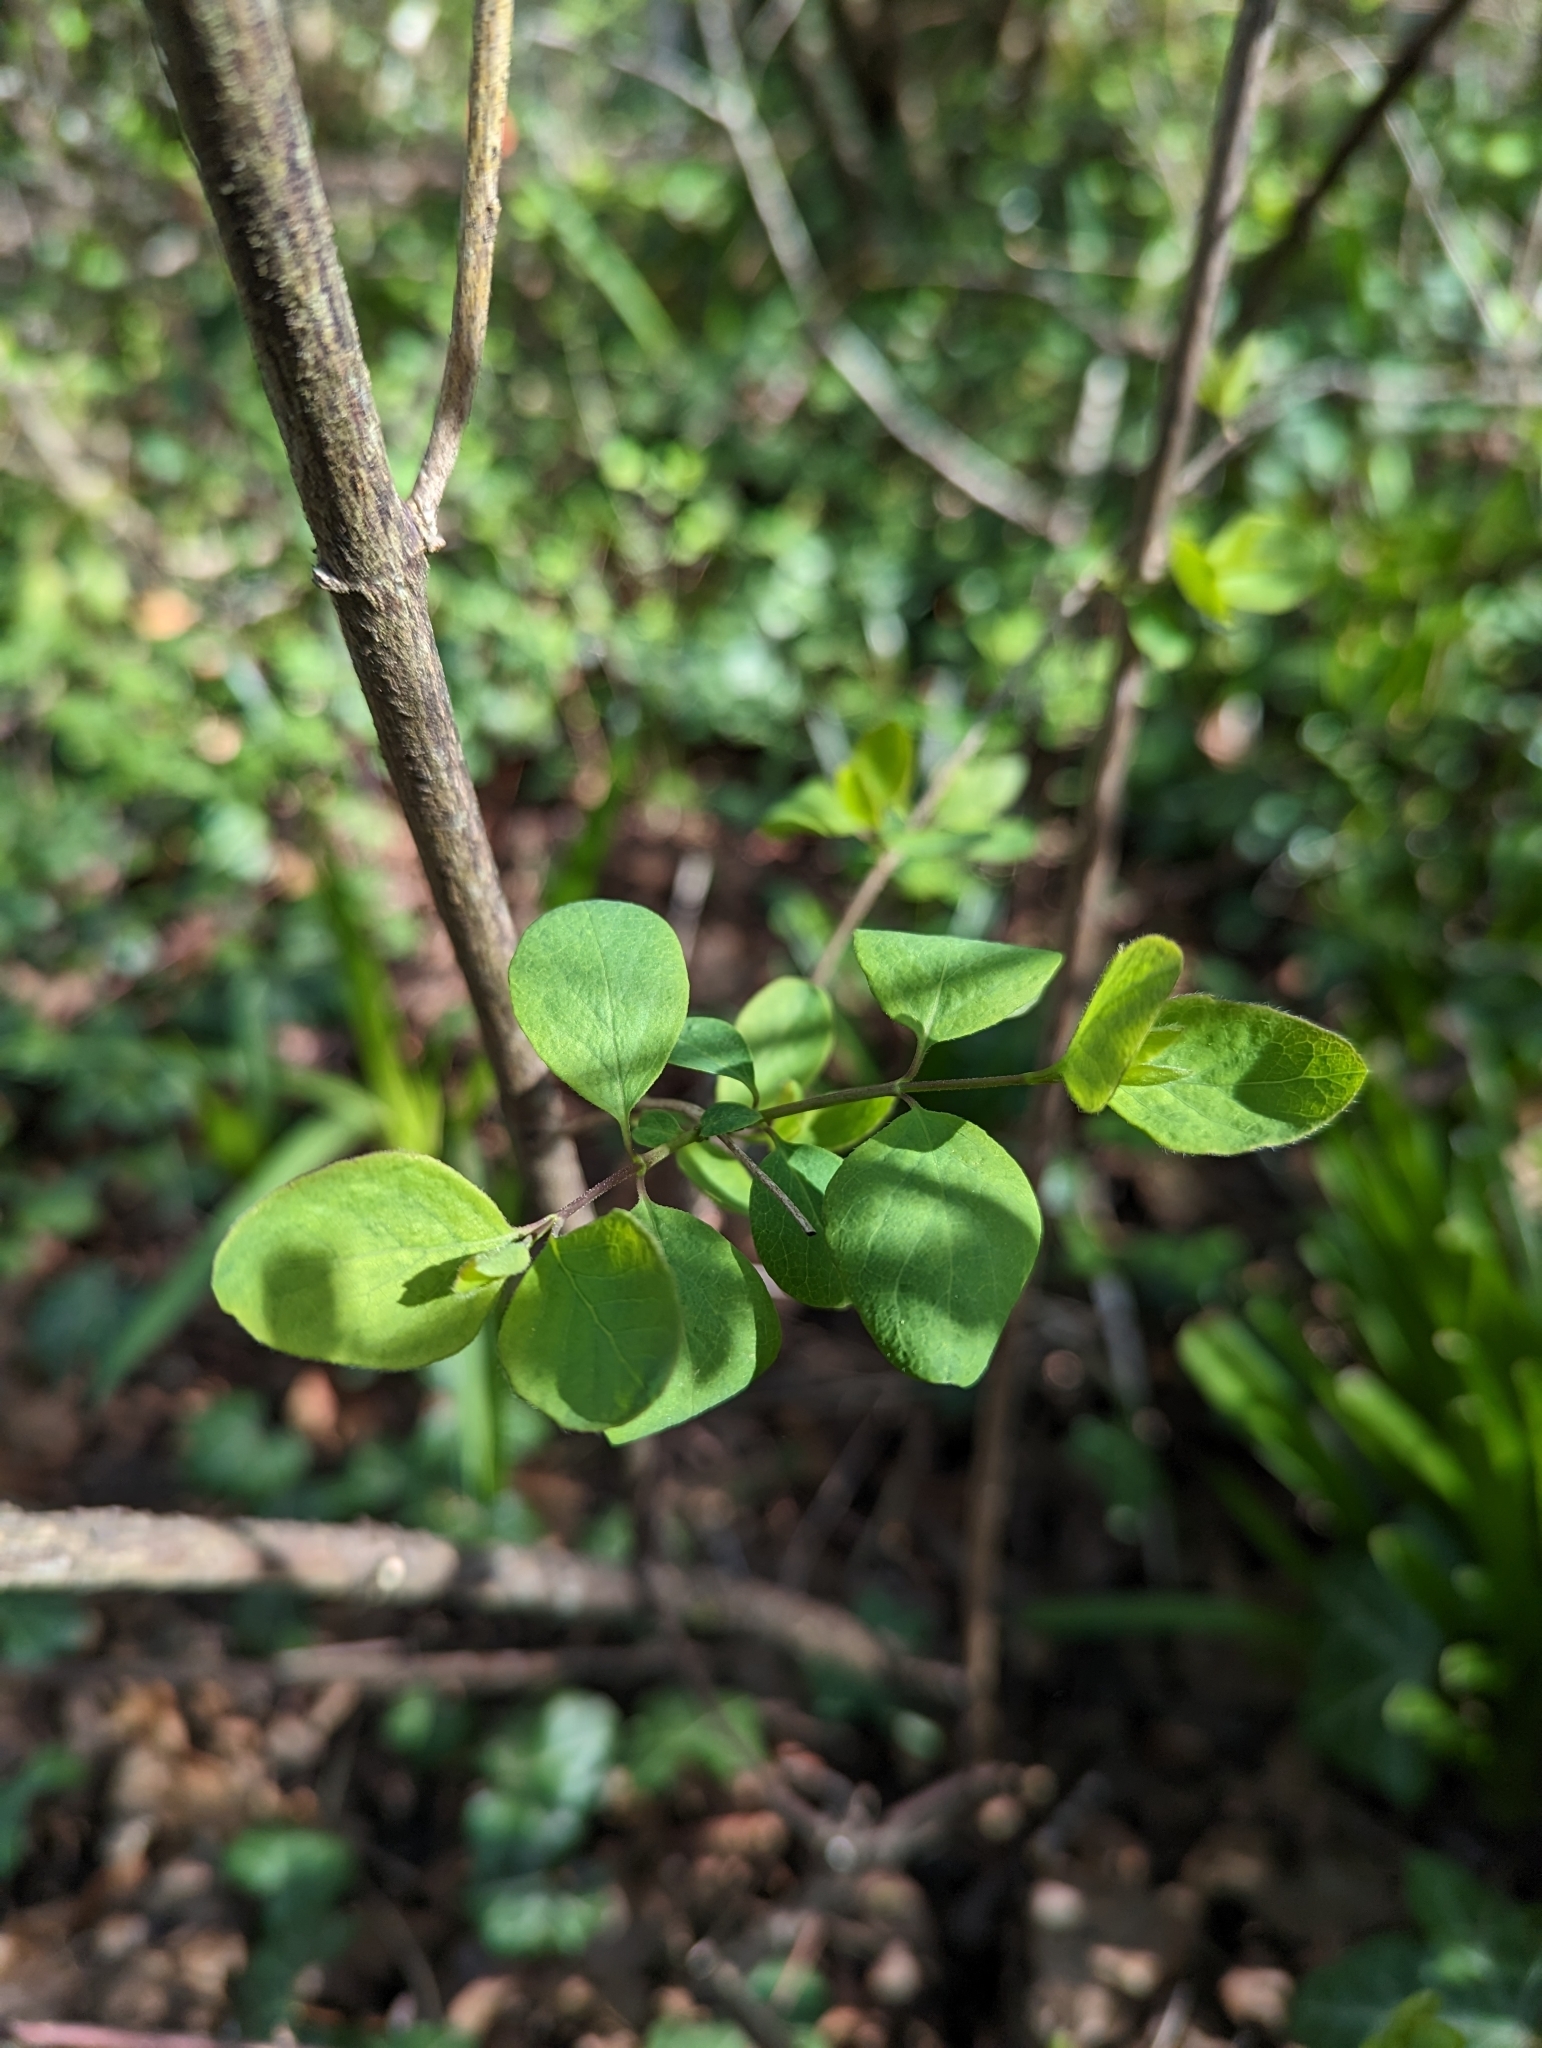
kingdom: Plantae
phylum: Tracheophyta
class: Magnoliopsida
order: Dipsacales
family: Caprifoliaceae
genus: Symphoricarpos
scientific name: Symphoricarpos albus
